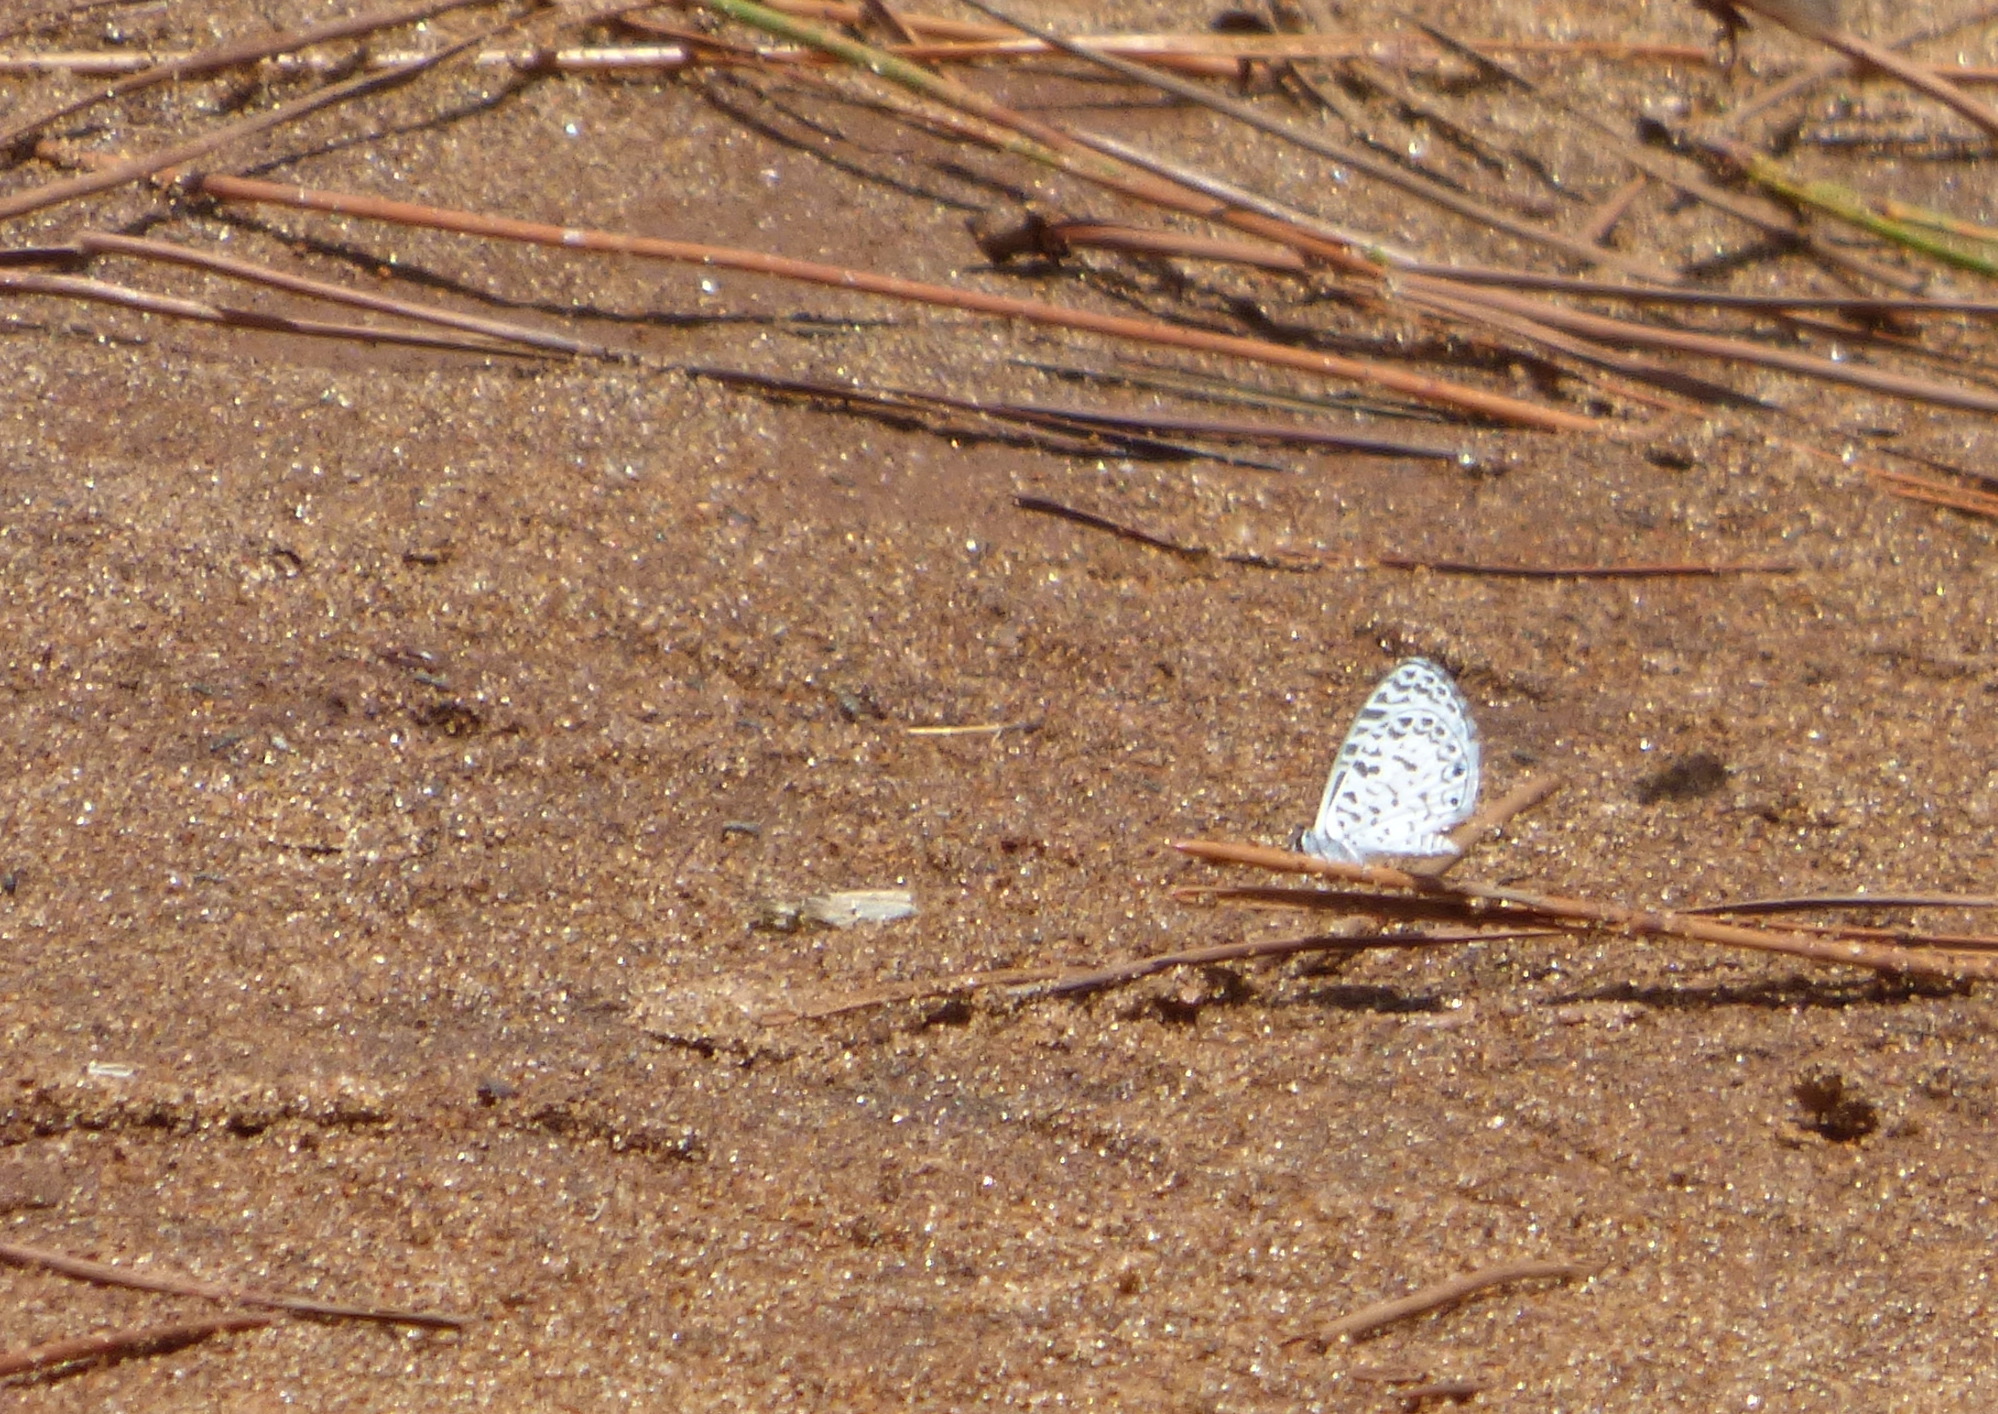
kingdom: Animalia
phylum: Arthropoda
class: Insecta
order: Lepidoptera
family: Lycaenidae
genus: Leptotes
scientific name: Leptotes cassius
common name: Cassius blue
